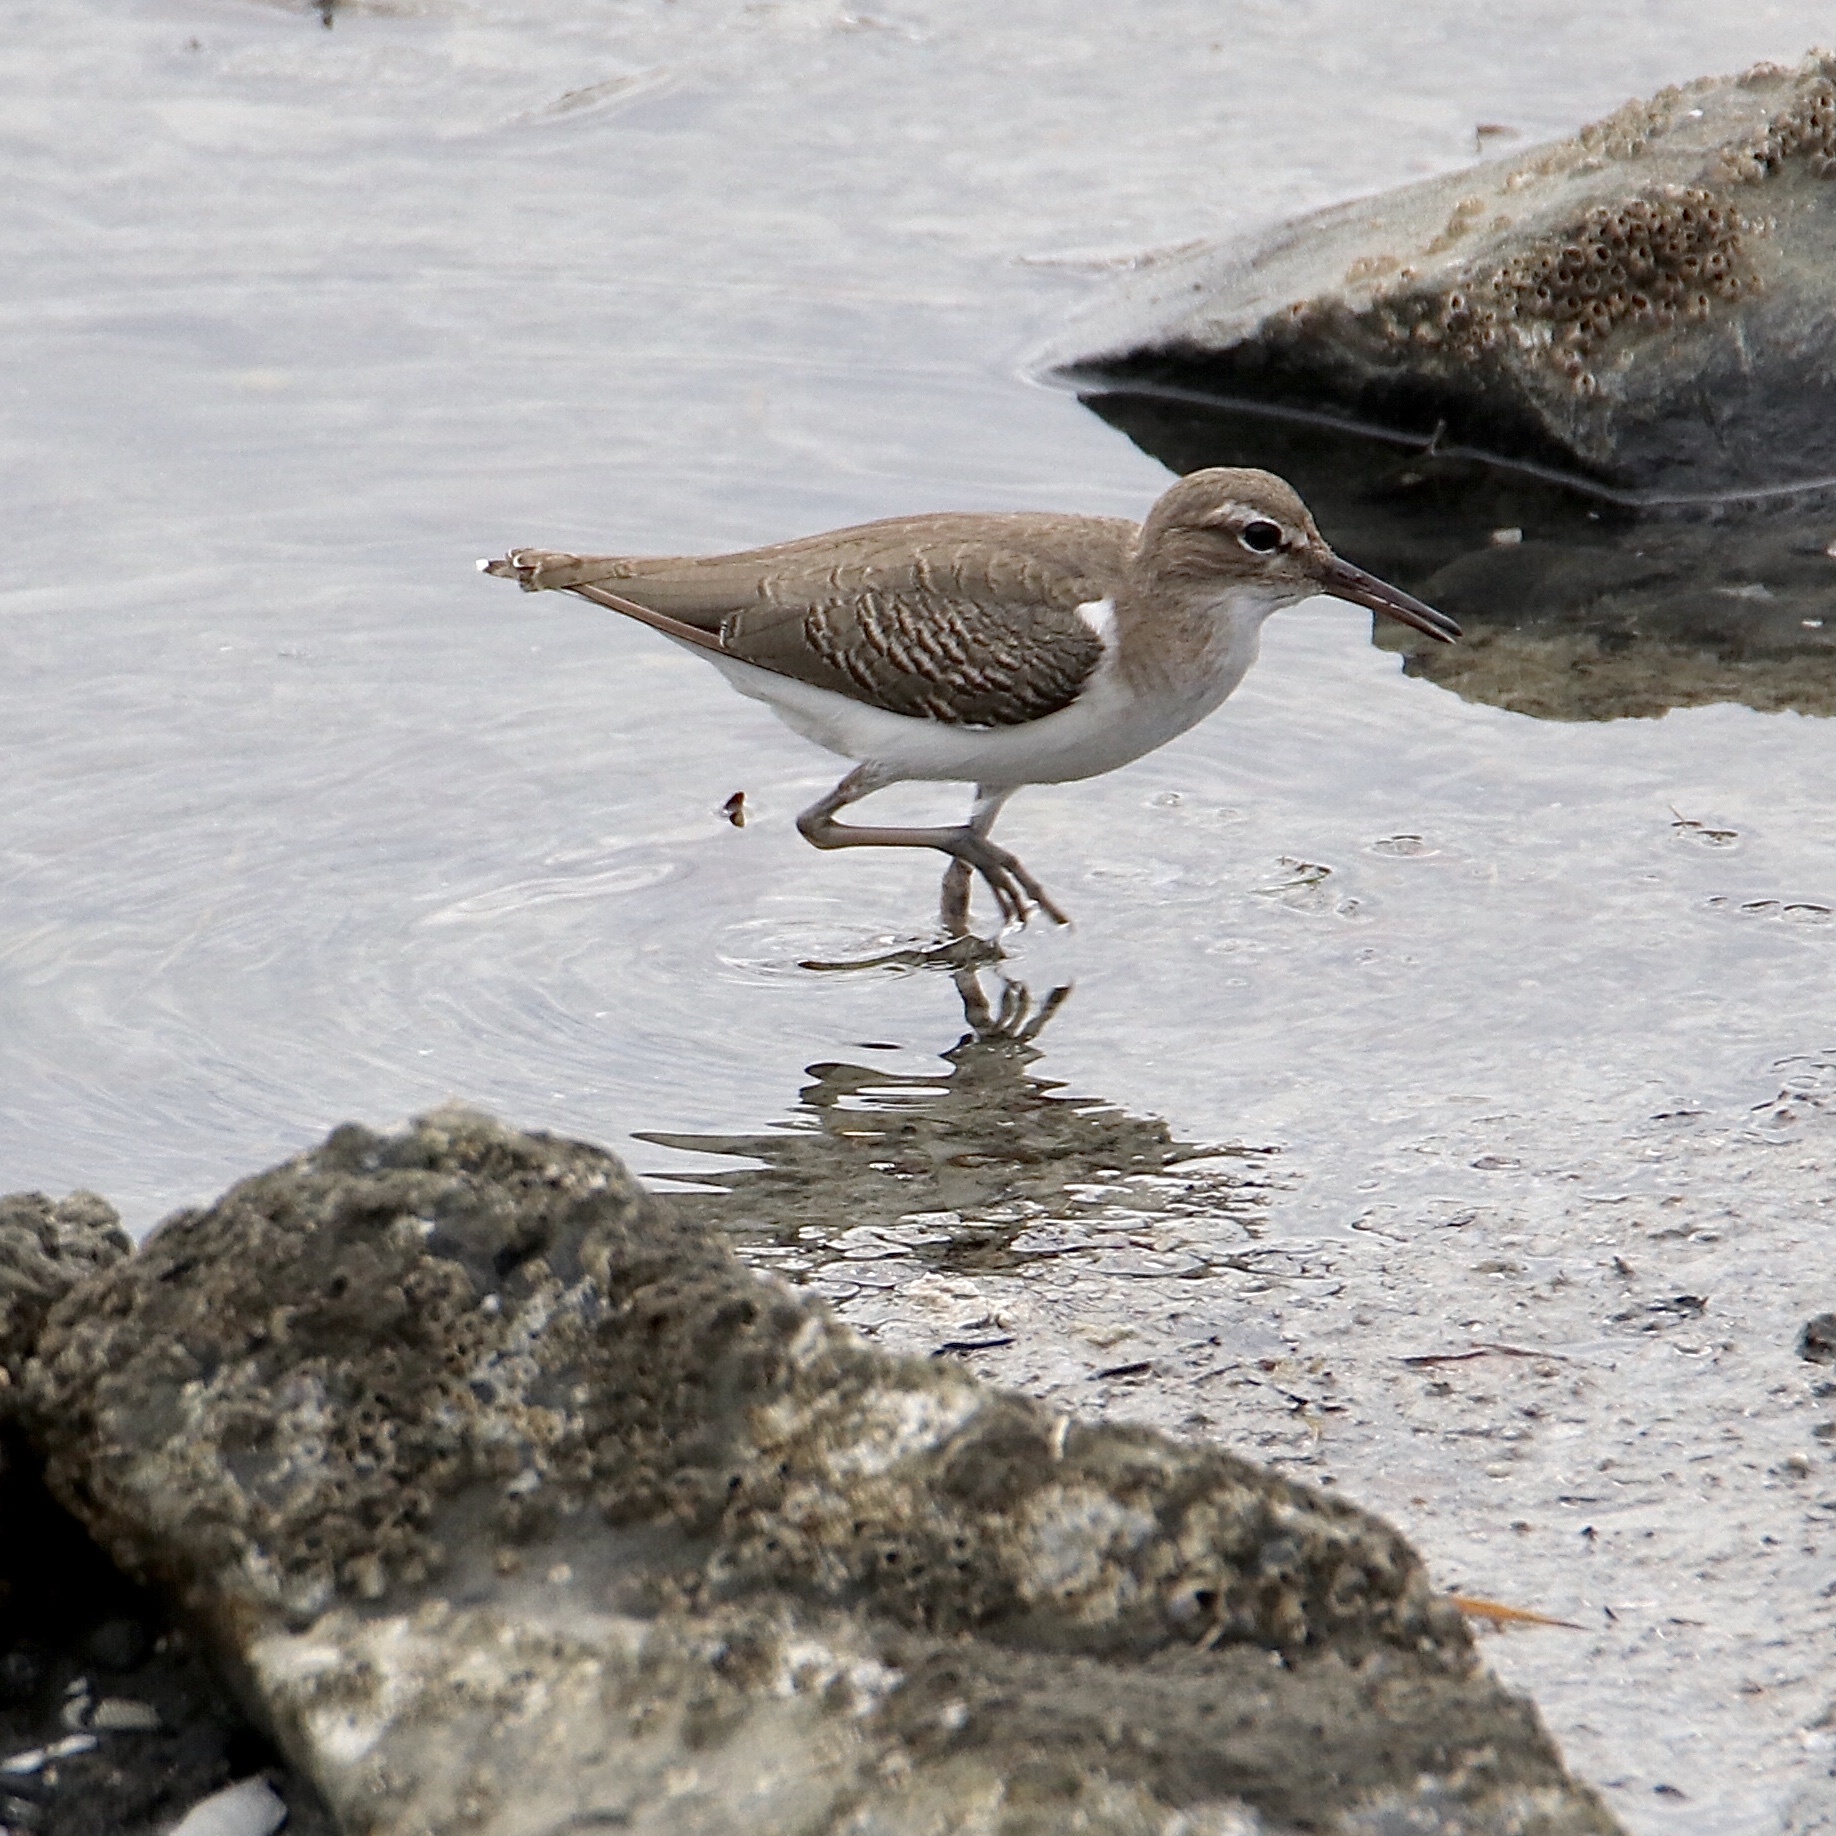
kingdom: Animalia
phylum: Chordata
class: Aves
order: Charadriiformes
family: Scolopacidae
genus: Actitis
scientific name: Actitis macularius
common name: Spotted sandpiper
